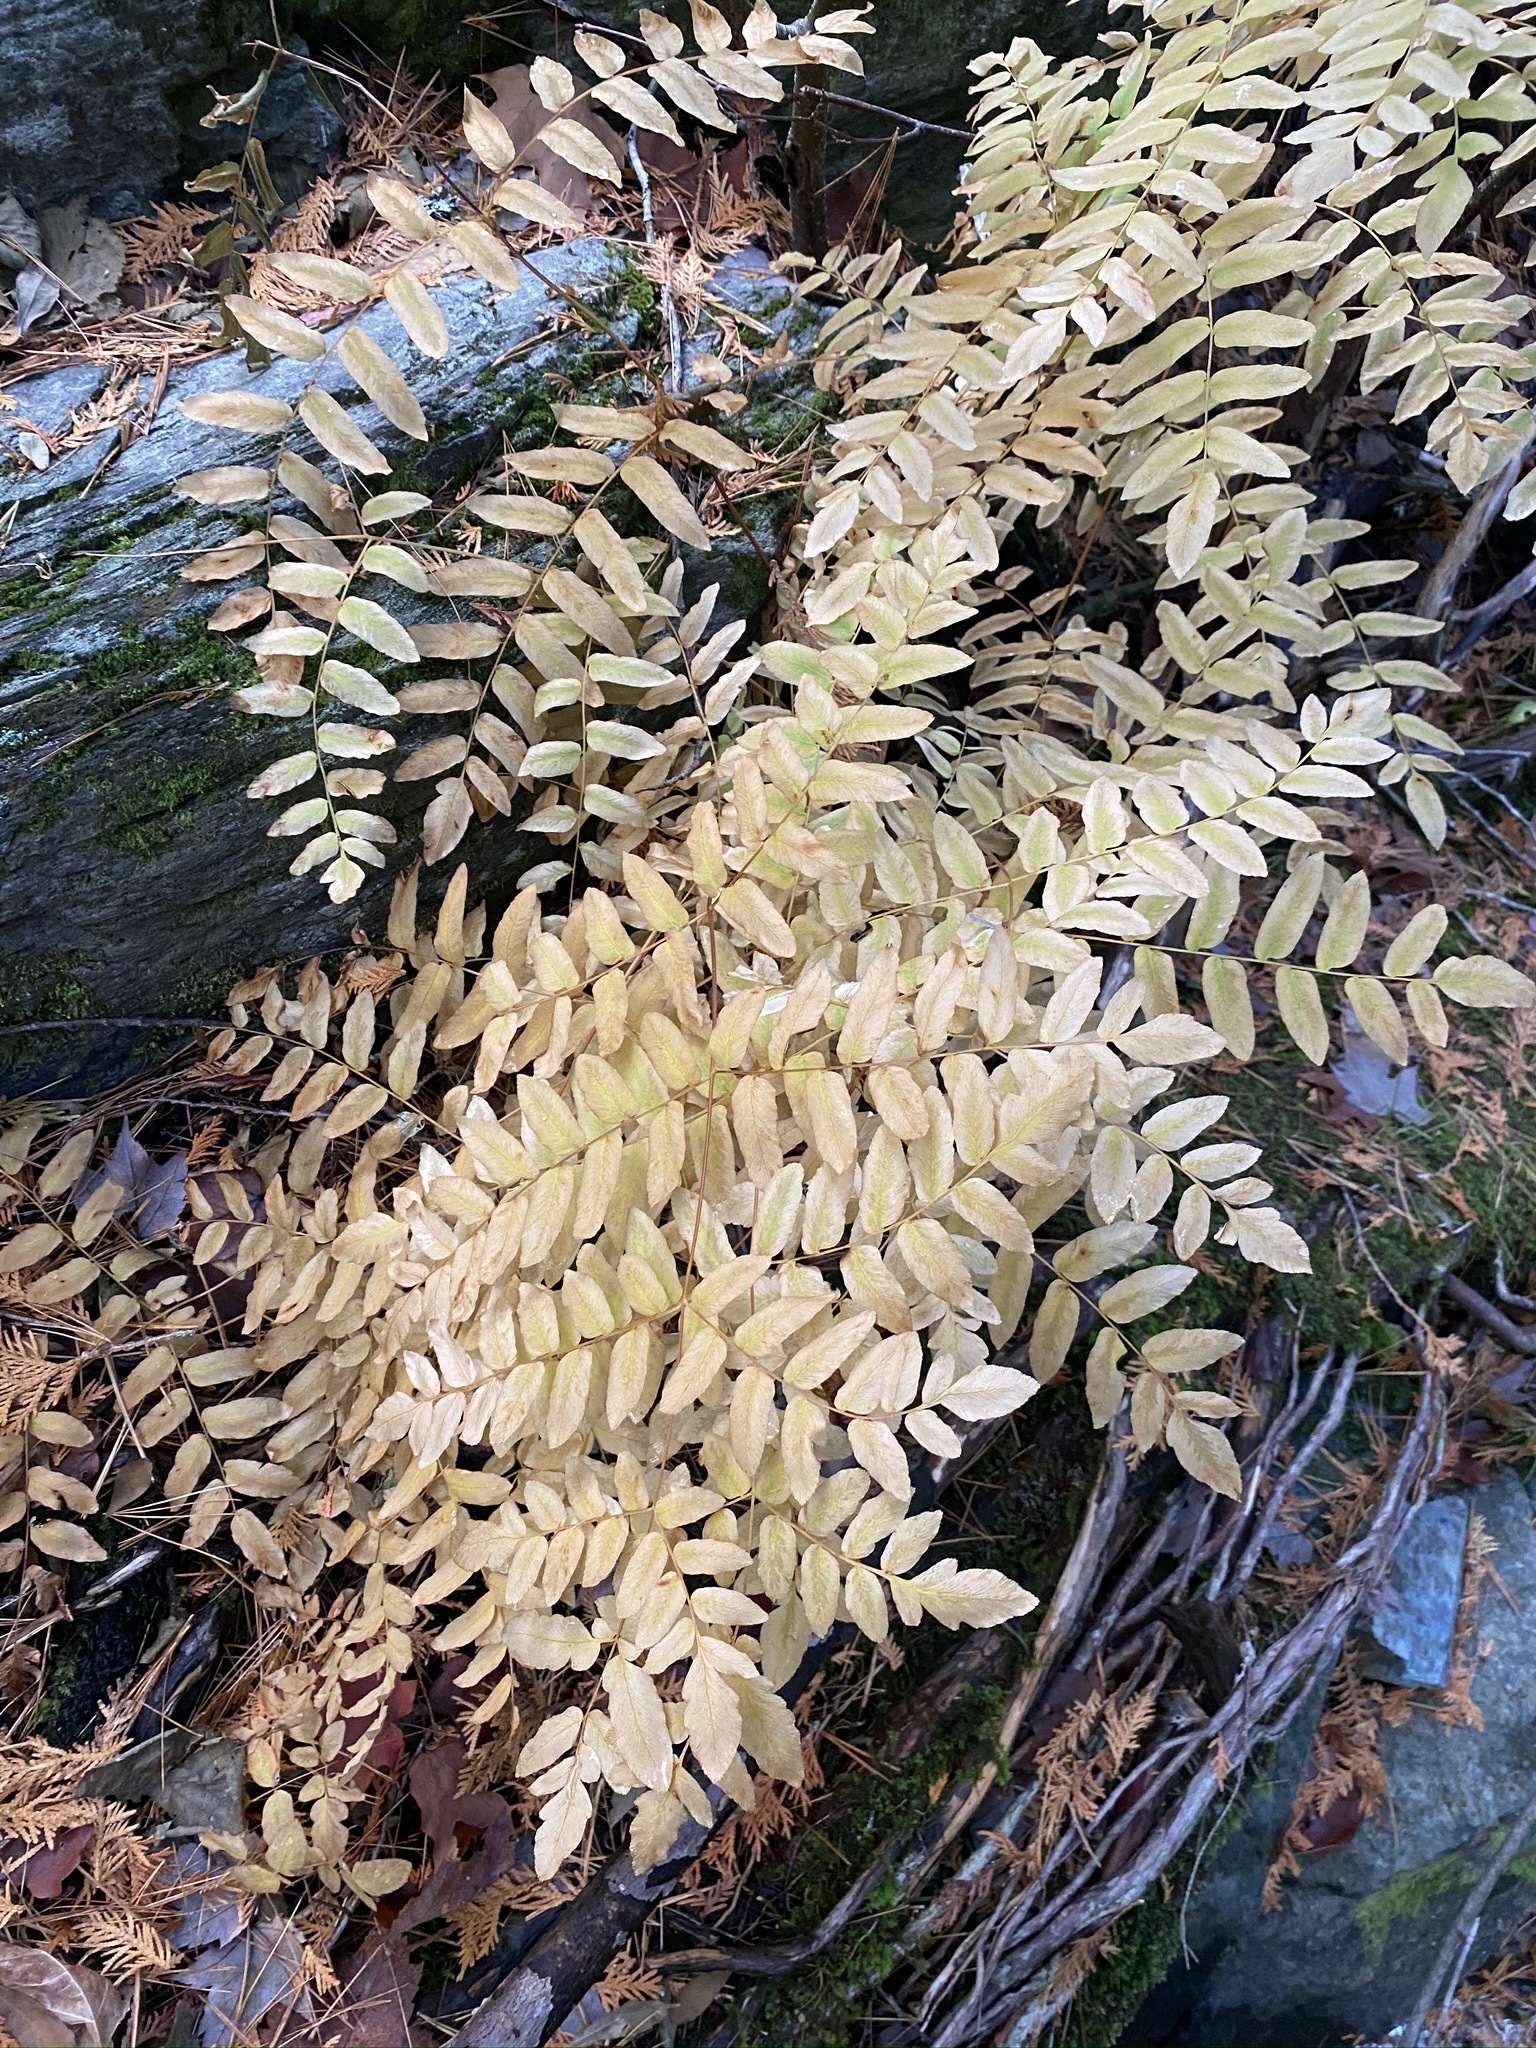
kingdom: Plantae
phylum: Tracheophyta
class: Polypodiopsida
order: Osmundales
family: Osmundaceae
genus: Osmunda
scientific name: Osmunda spectabilis
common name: American royal fern
